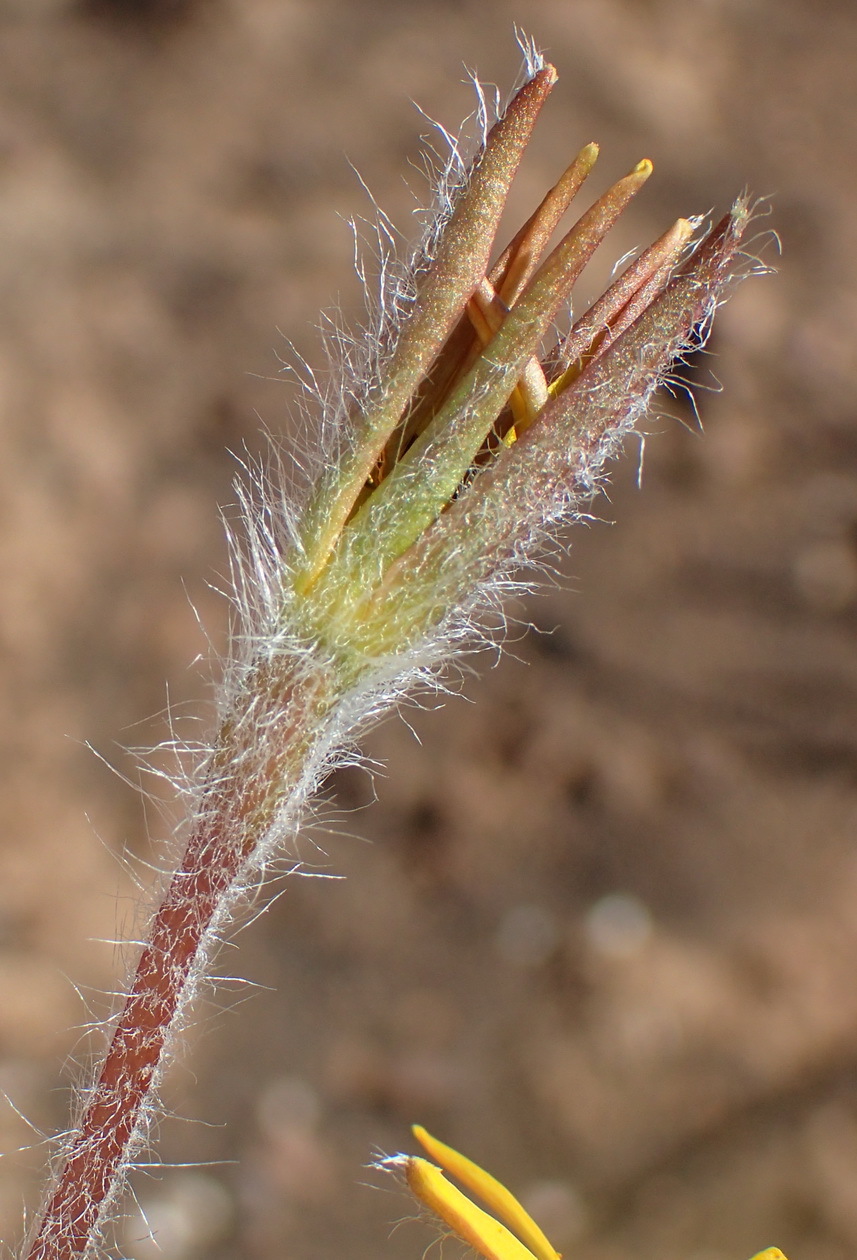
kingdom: Plantae
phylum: Tracheophyta
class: Liliopsida
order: Asparagales
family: Hypoxidaceae
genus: Hypoxis
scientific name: Hypoxis villosa
